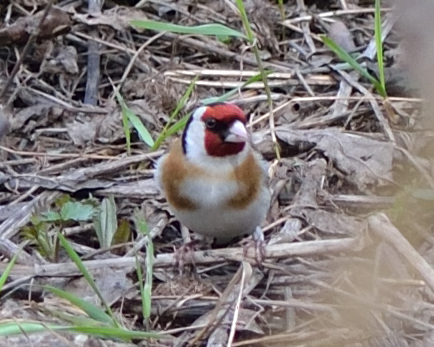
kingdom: Animalia
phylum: Chordata
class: Aves
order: Passeriformes
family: Fringillidae
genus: Carduelis
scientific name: Carduelis carduelis
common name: European goldfinch
